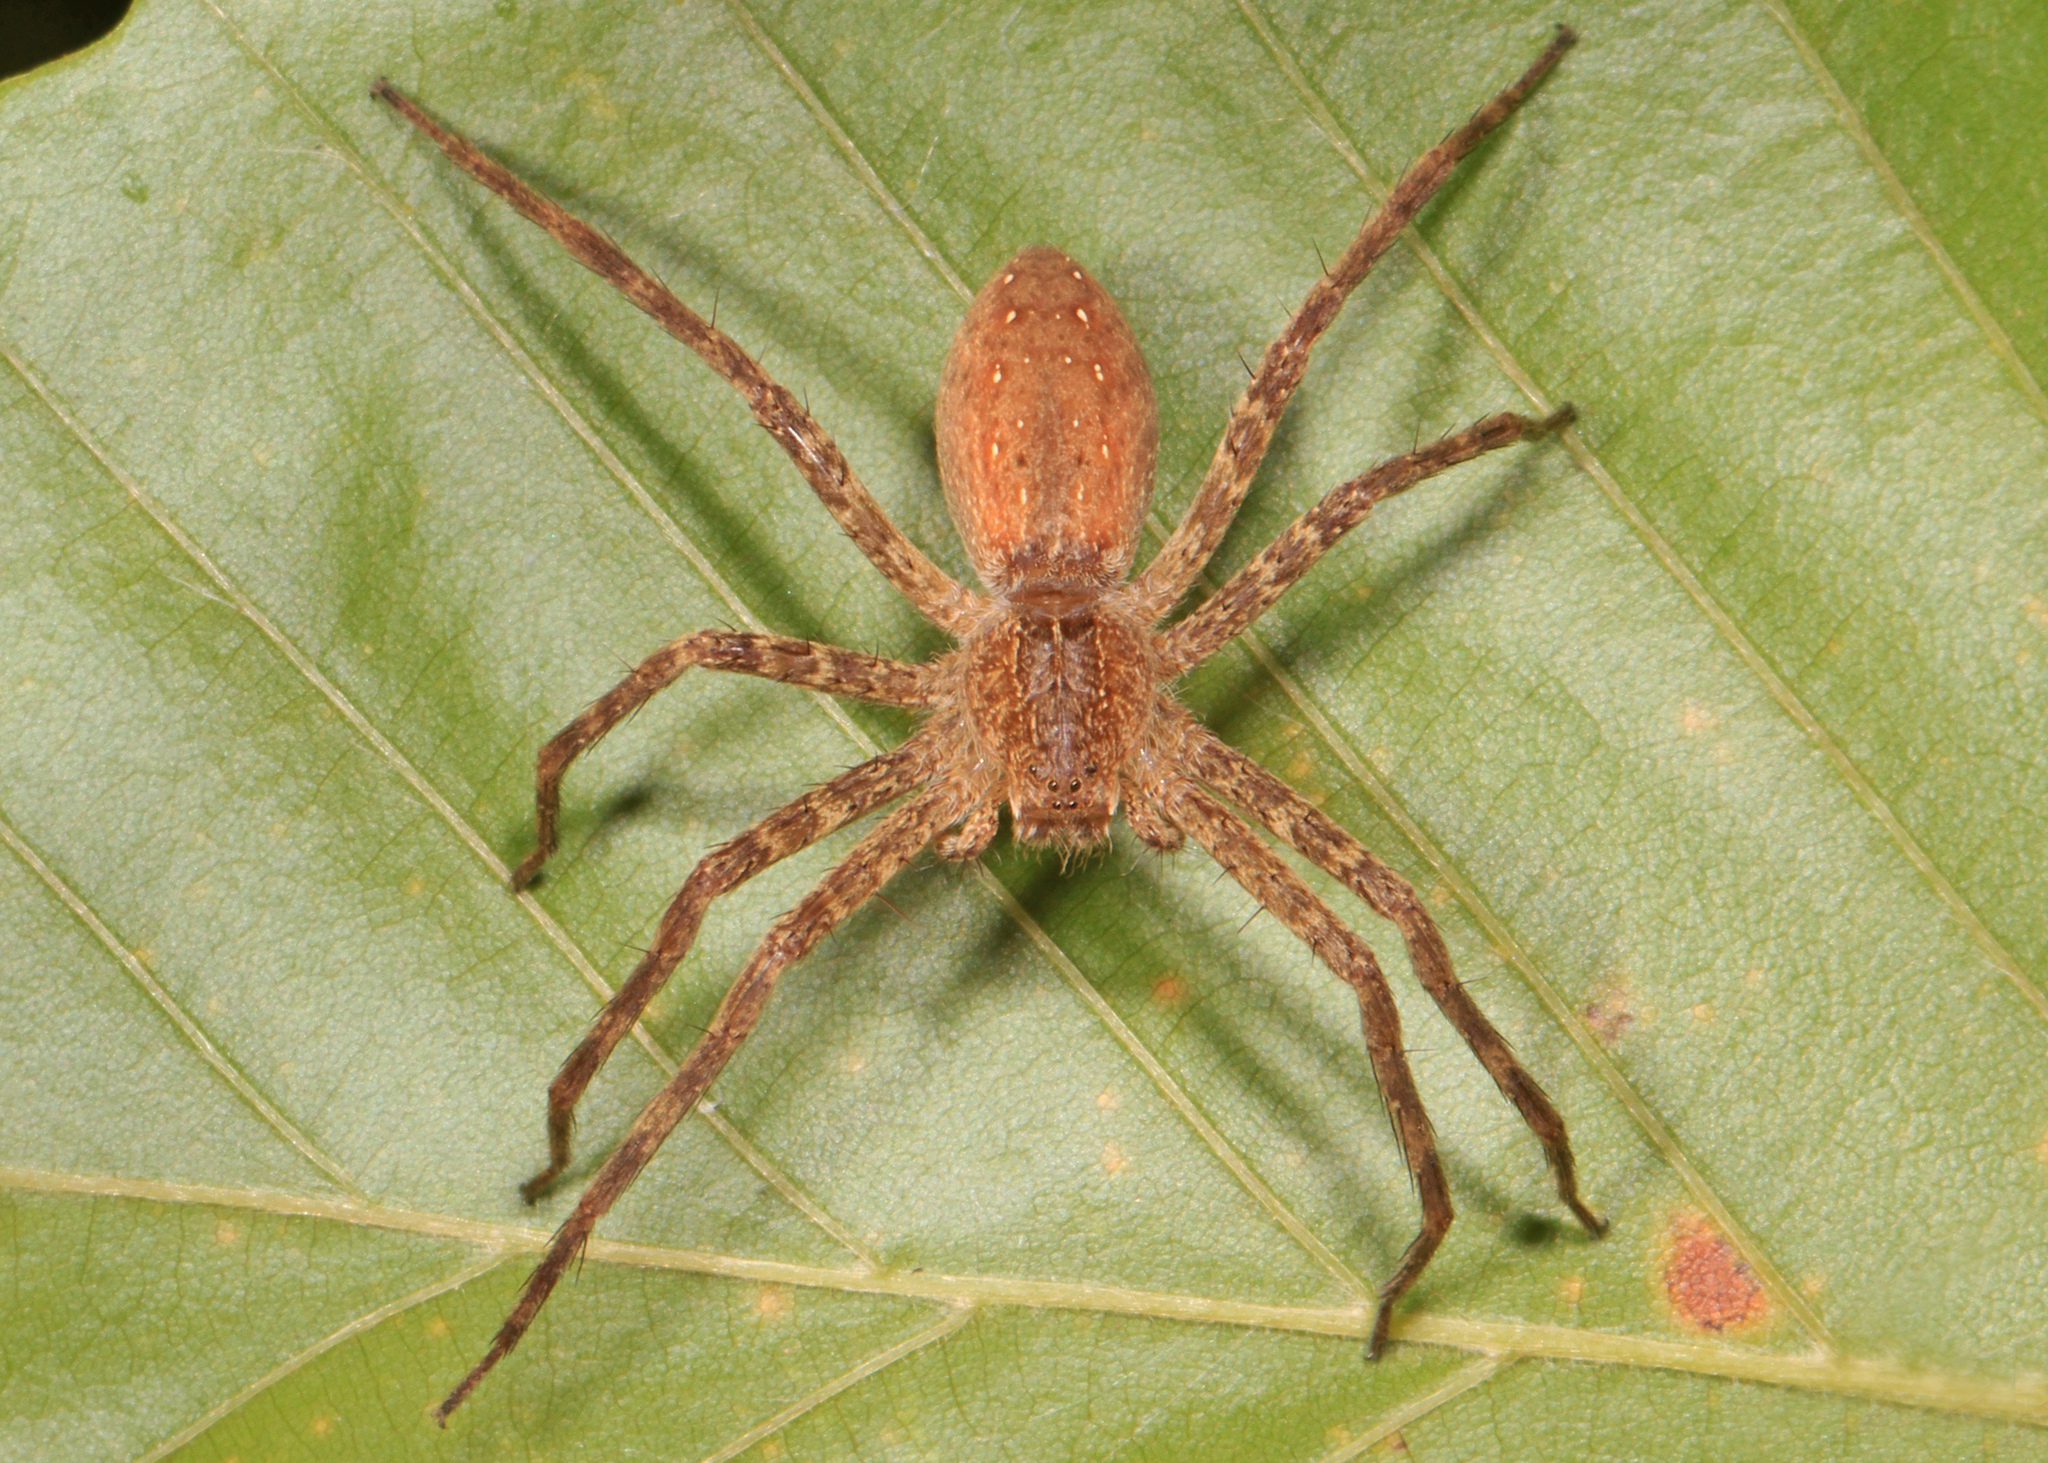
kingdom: Animalia
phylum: Arthropoda
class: Arachnida
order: Araneae
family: Pisauridae
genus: Pisaurina
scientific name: Pisaurina mira
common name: American nursery web spider
